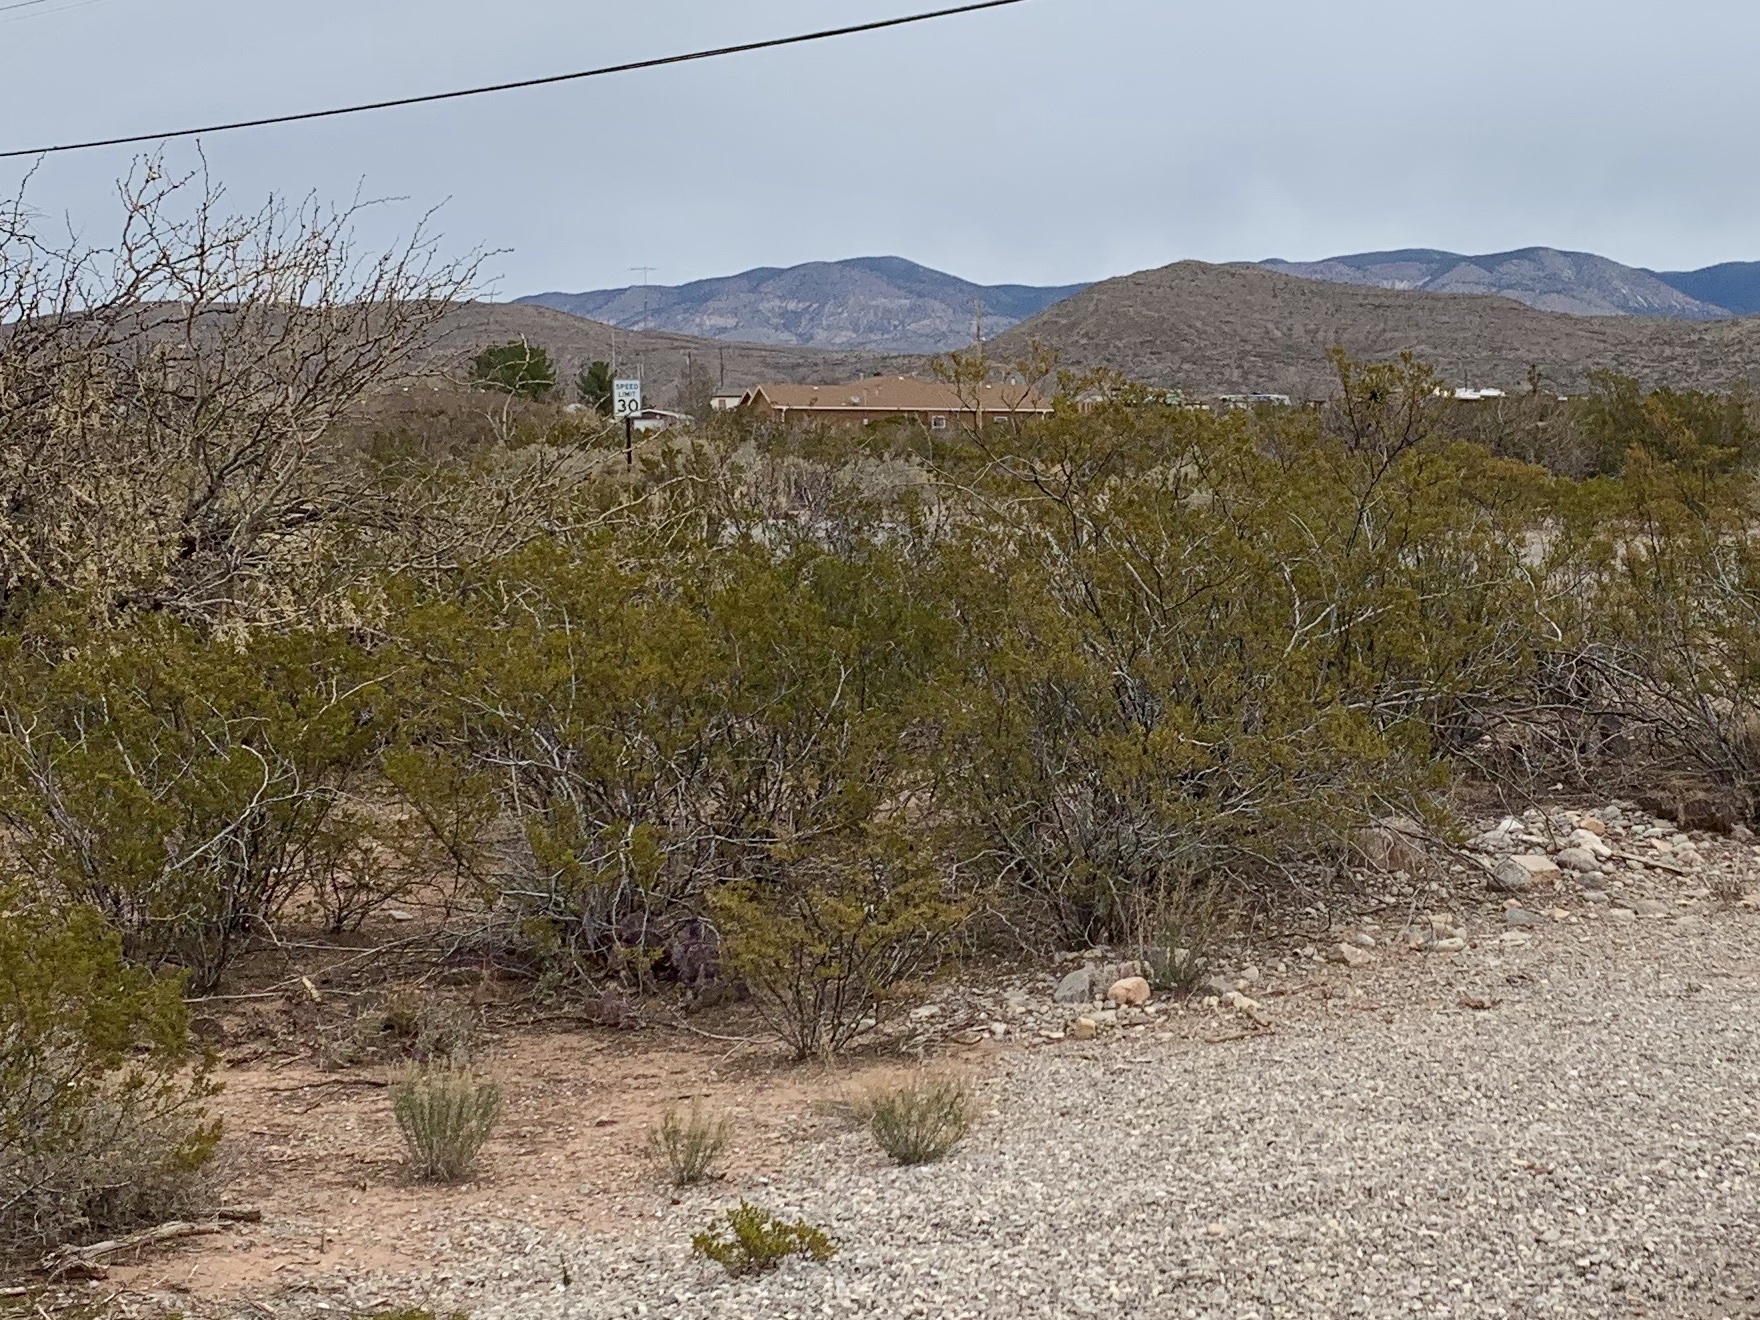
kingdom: Plantae
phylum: Tracheophyta
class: Magnoliopsida
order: Zygophyllales
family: Zygophyllaceae
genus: Larrea
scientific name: Larrea tridentata
